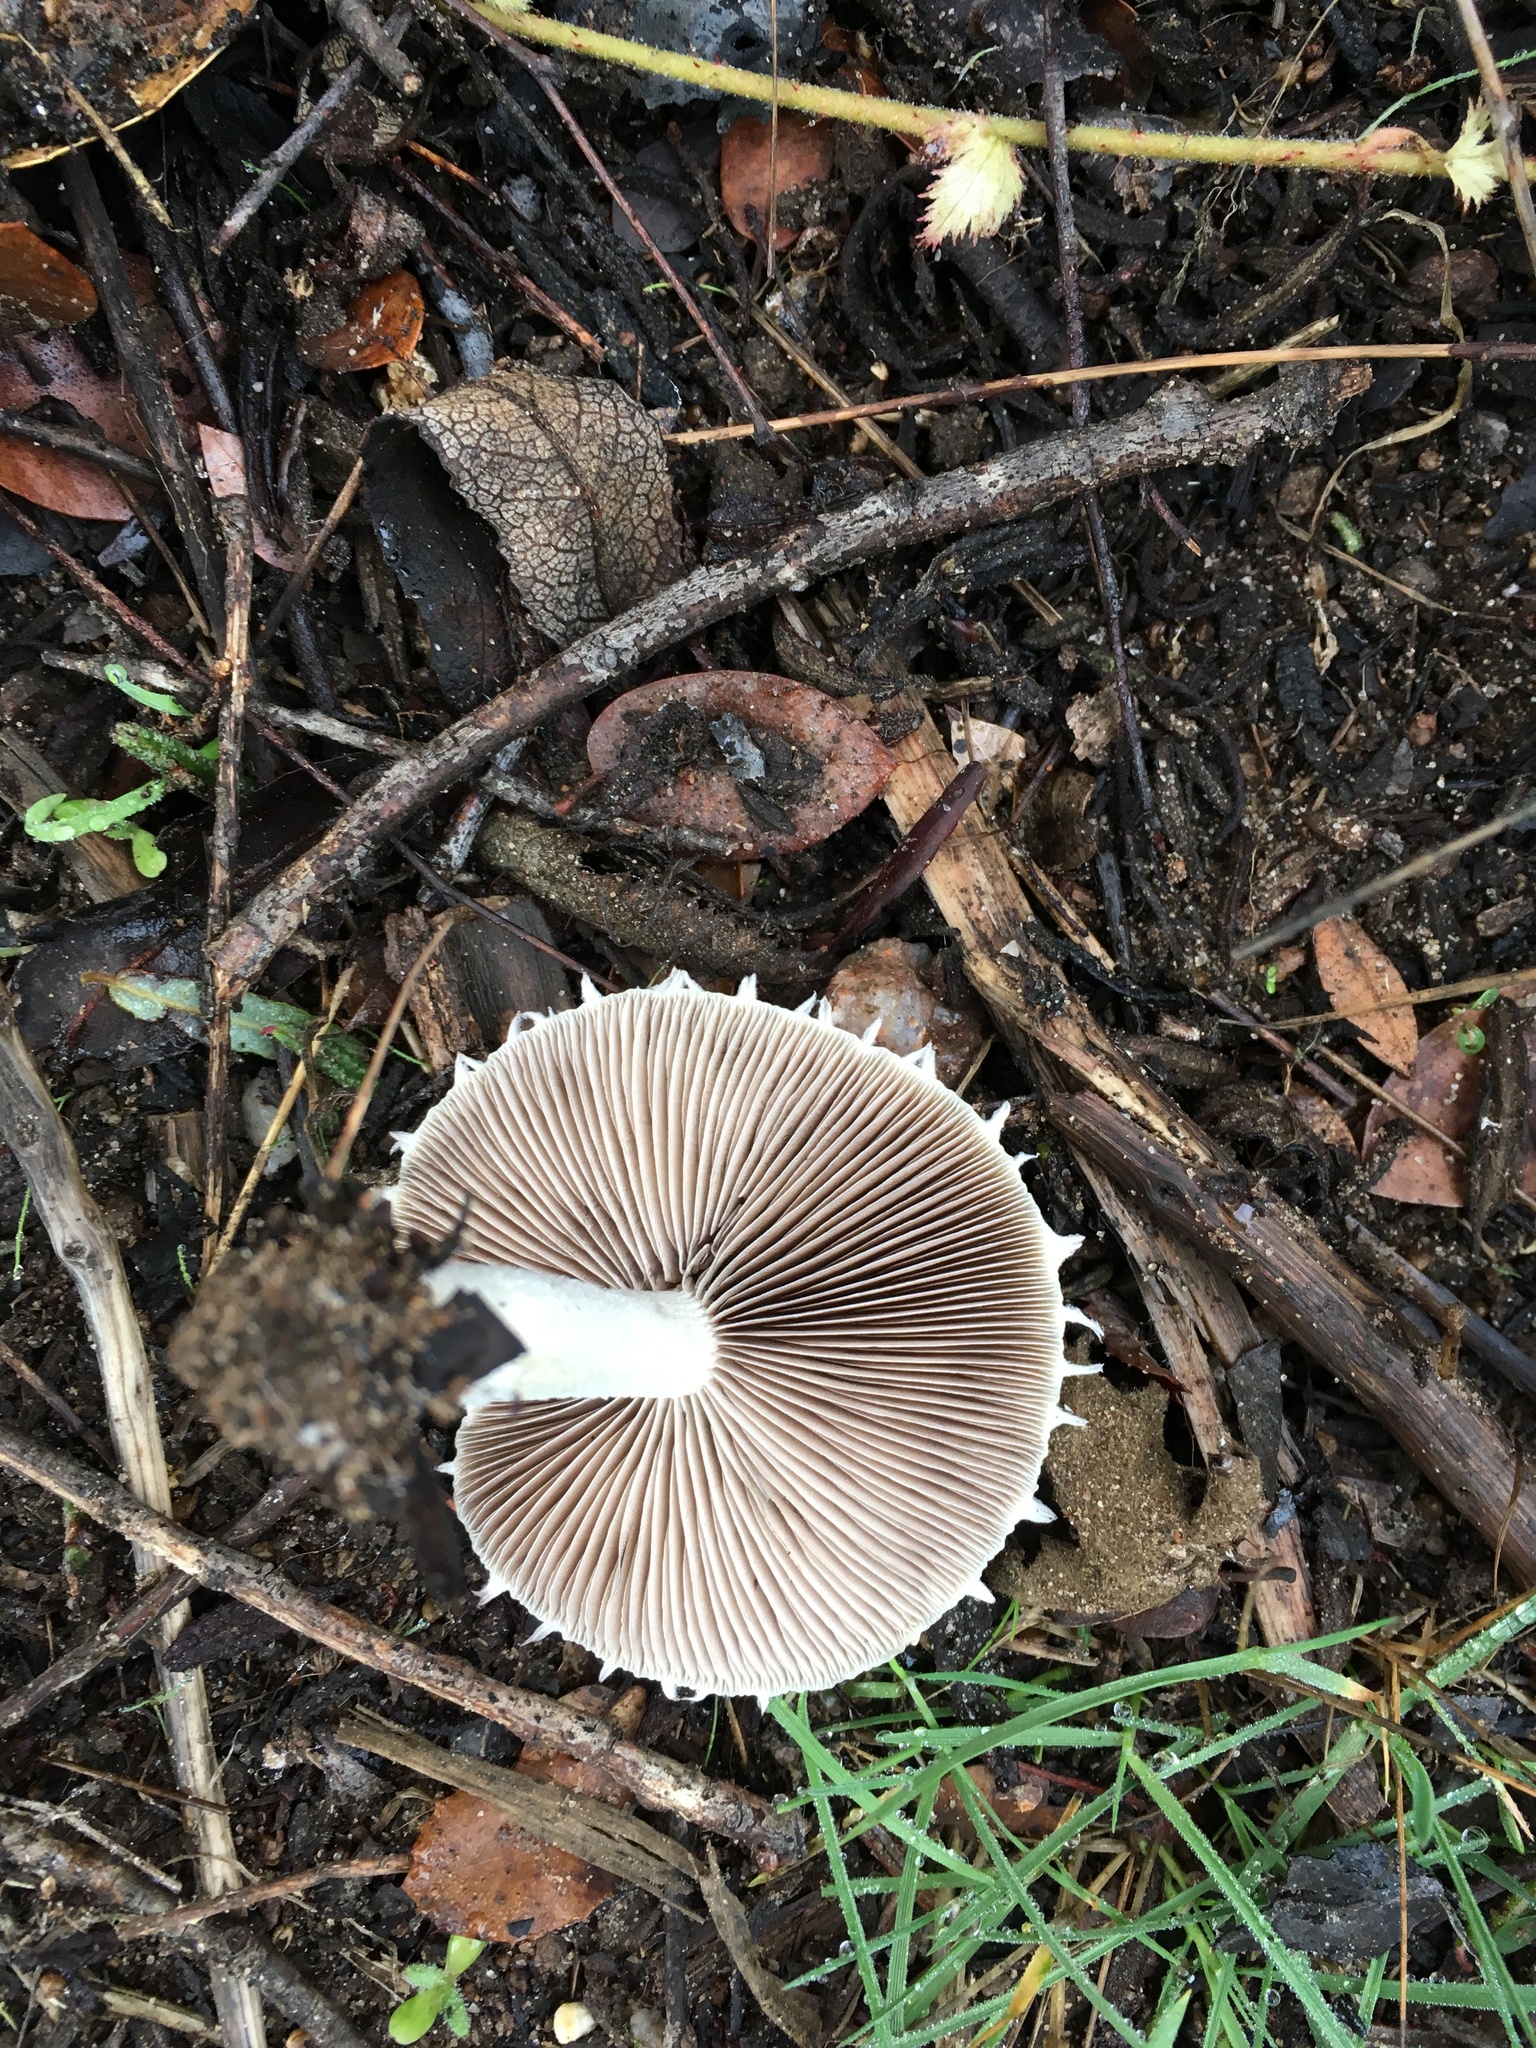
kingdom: Fungi
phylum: Basidiomycota
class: Agaricomycetes
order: Agaricales
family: Psathyrellaceae
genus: Candolleomyces
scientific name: Candolleomyces candolleanus
